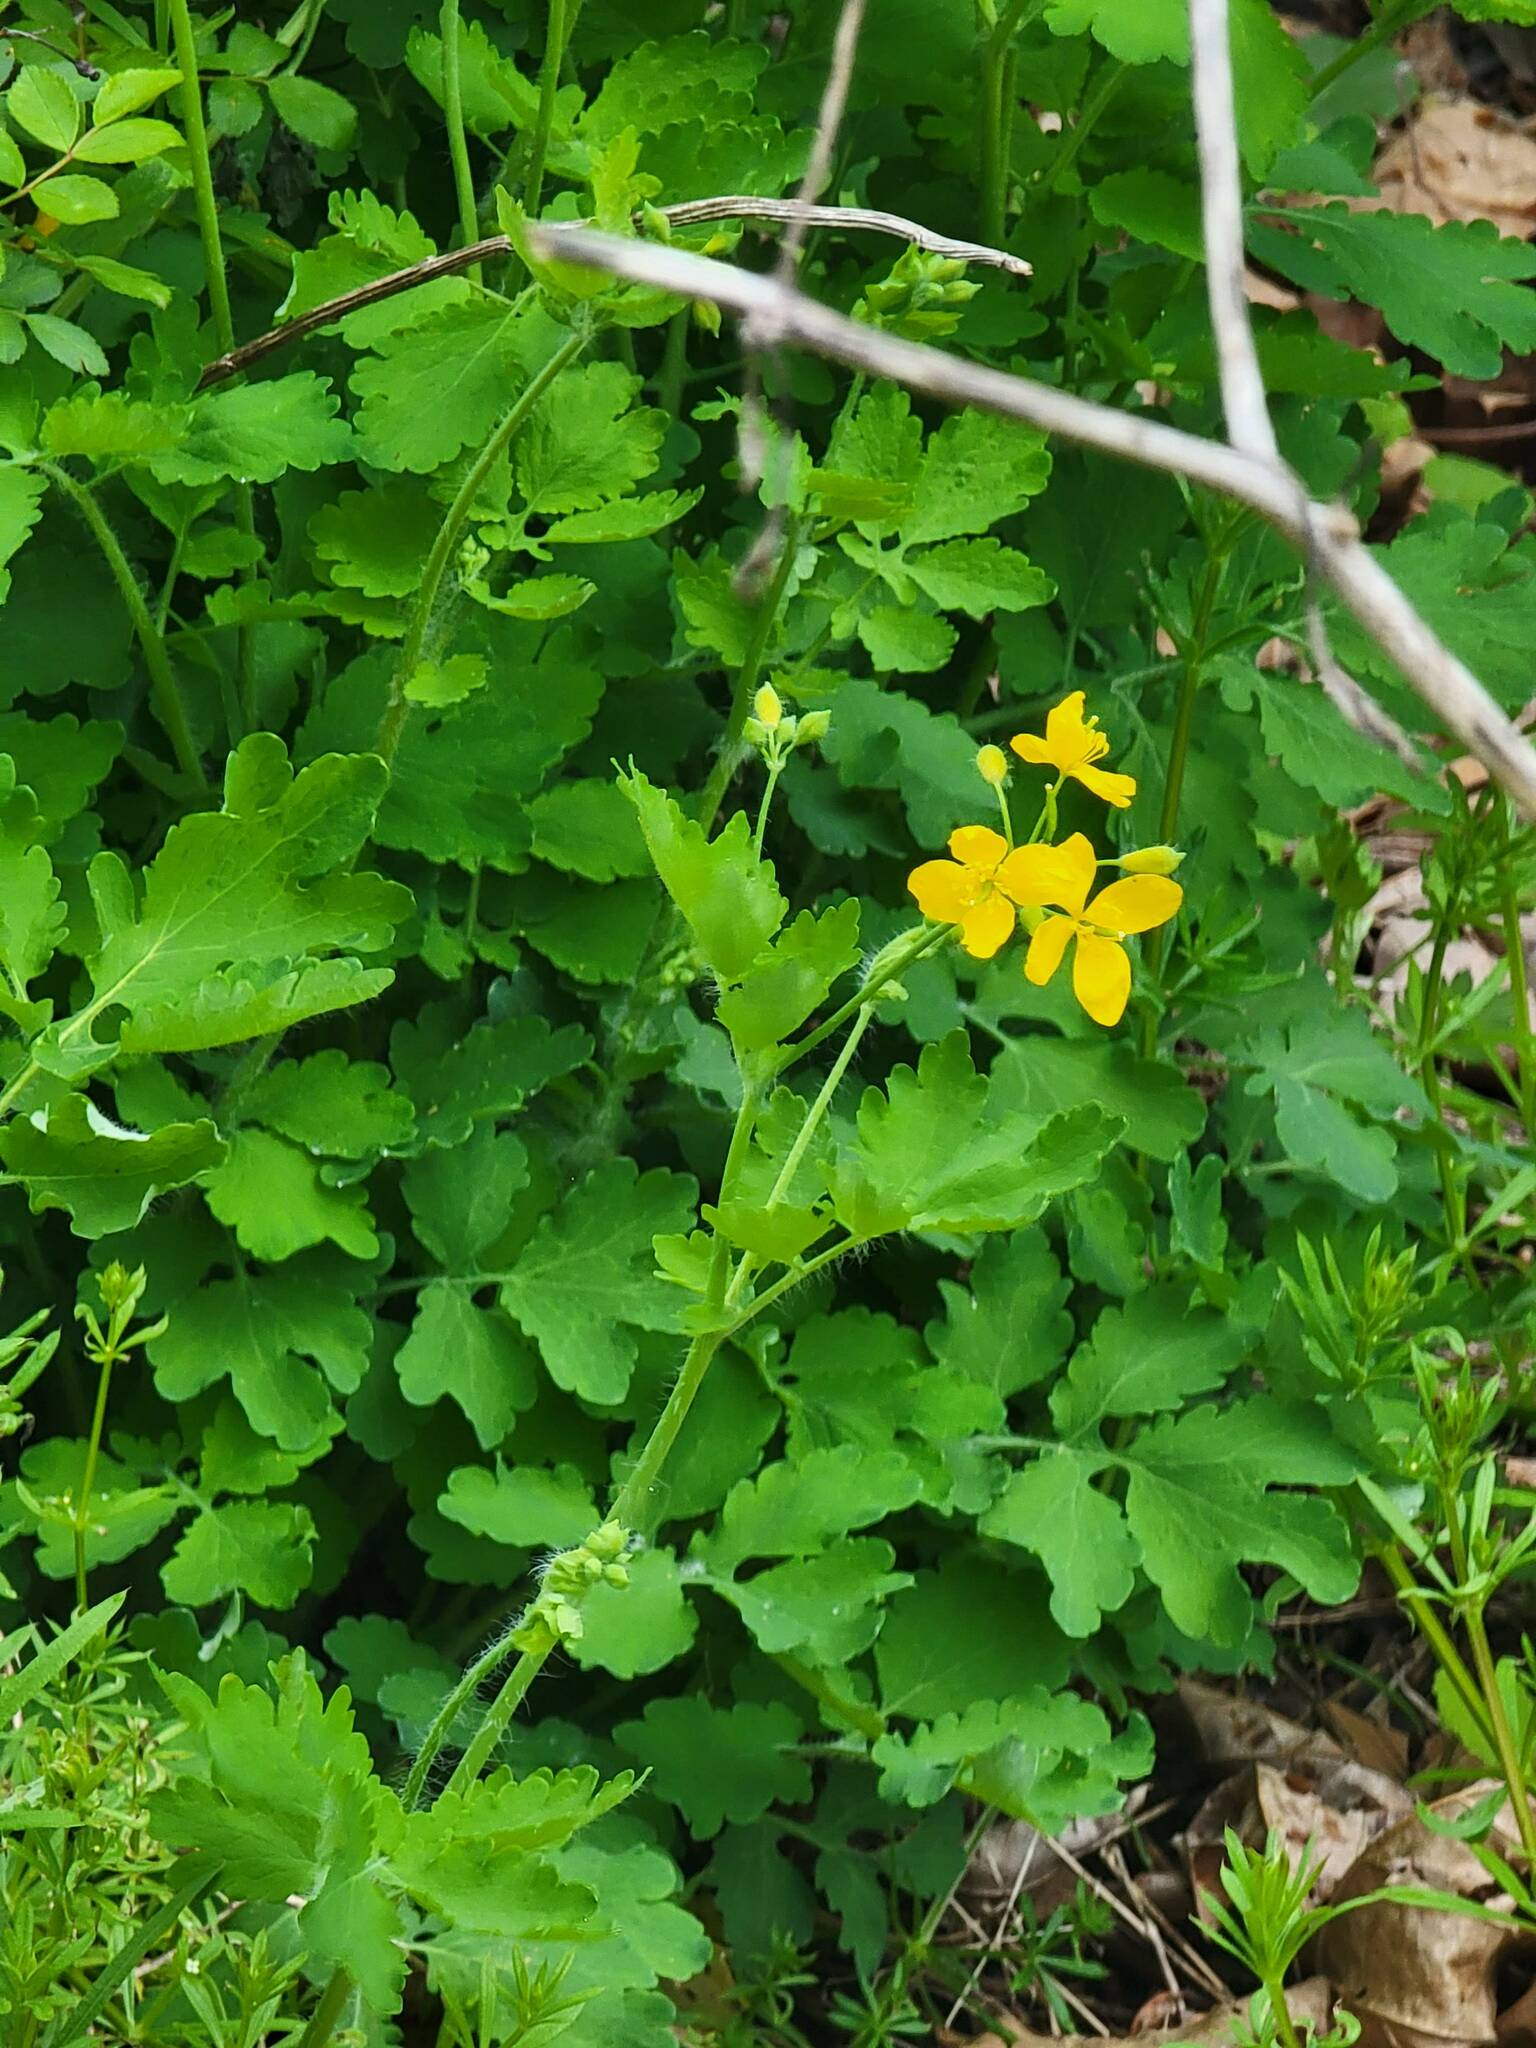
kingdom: Plantae
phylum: Tracheophyta
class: Magnoliopsida
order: Ranunculales
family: Papaveraceae
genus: Chelidonium
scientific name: Chelidonium majus
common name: Greater celandine
